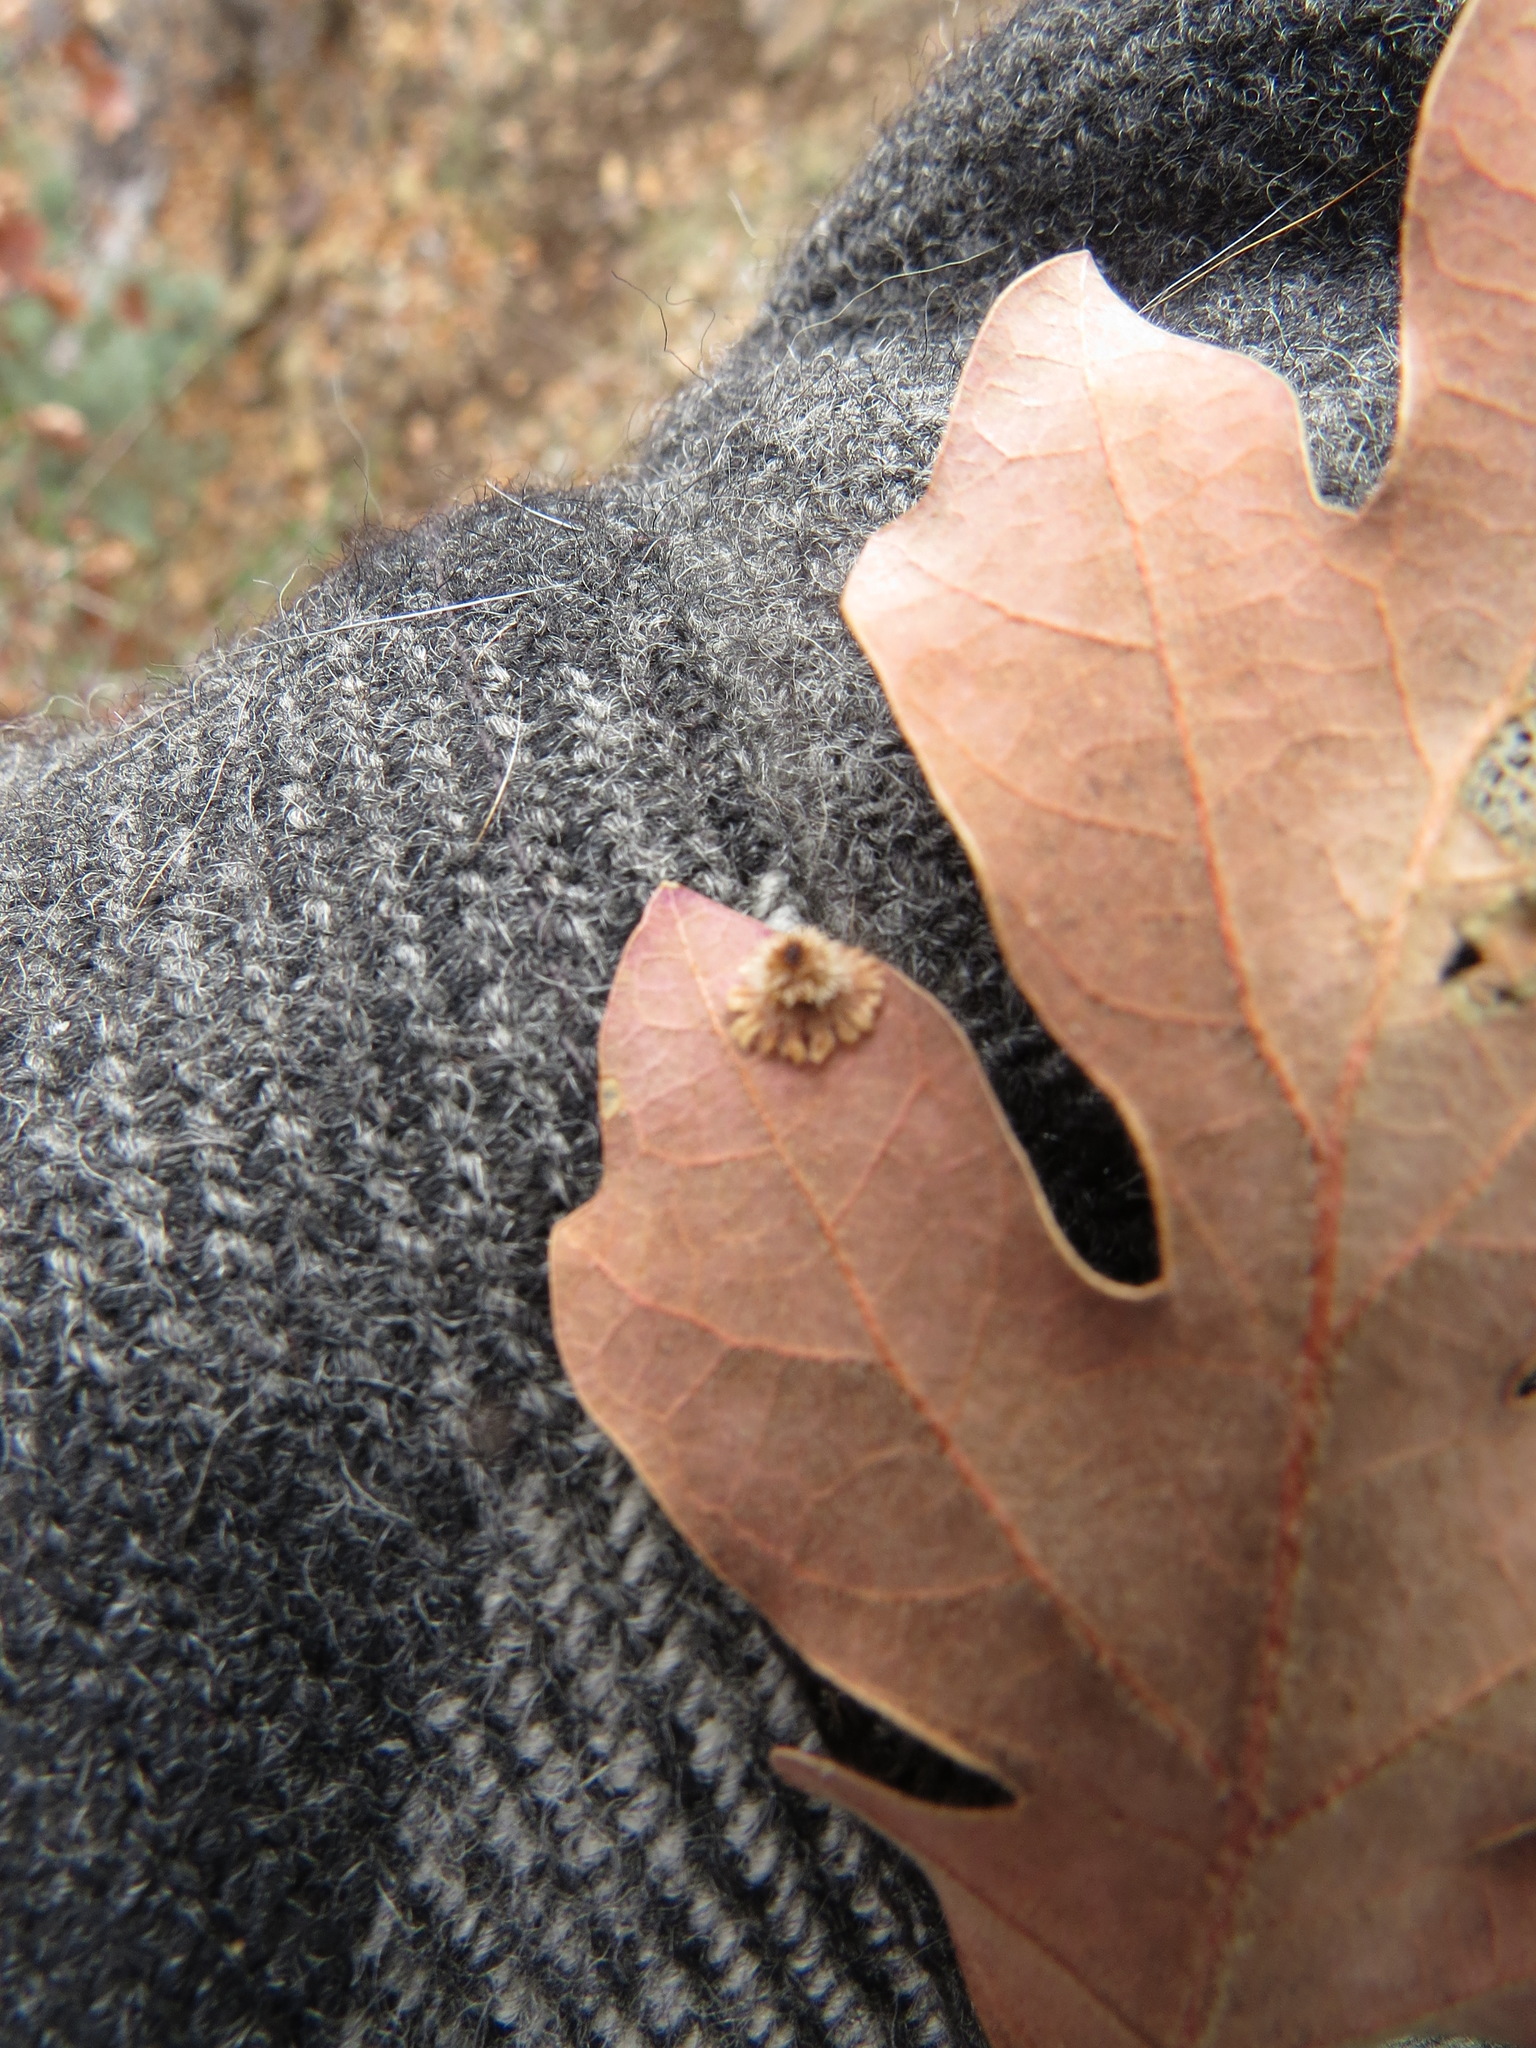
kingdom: Animalia
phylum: Arthropoda
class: Insecta
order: Hymenoptera
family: Cynipidae
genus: Andricus
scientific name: Andricus
